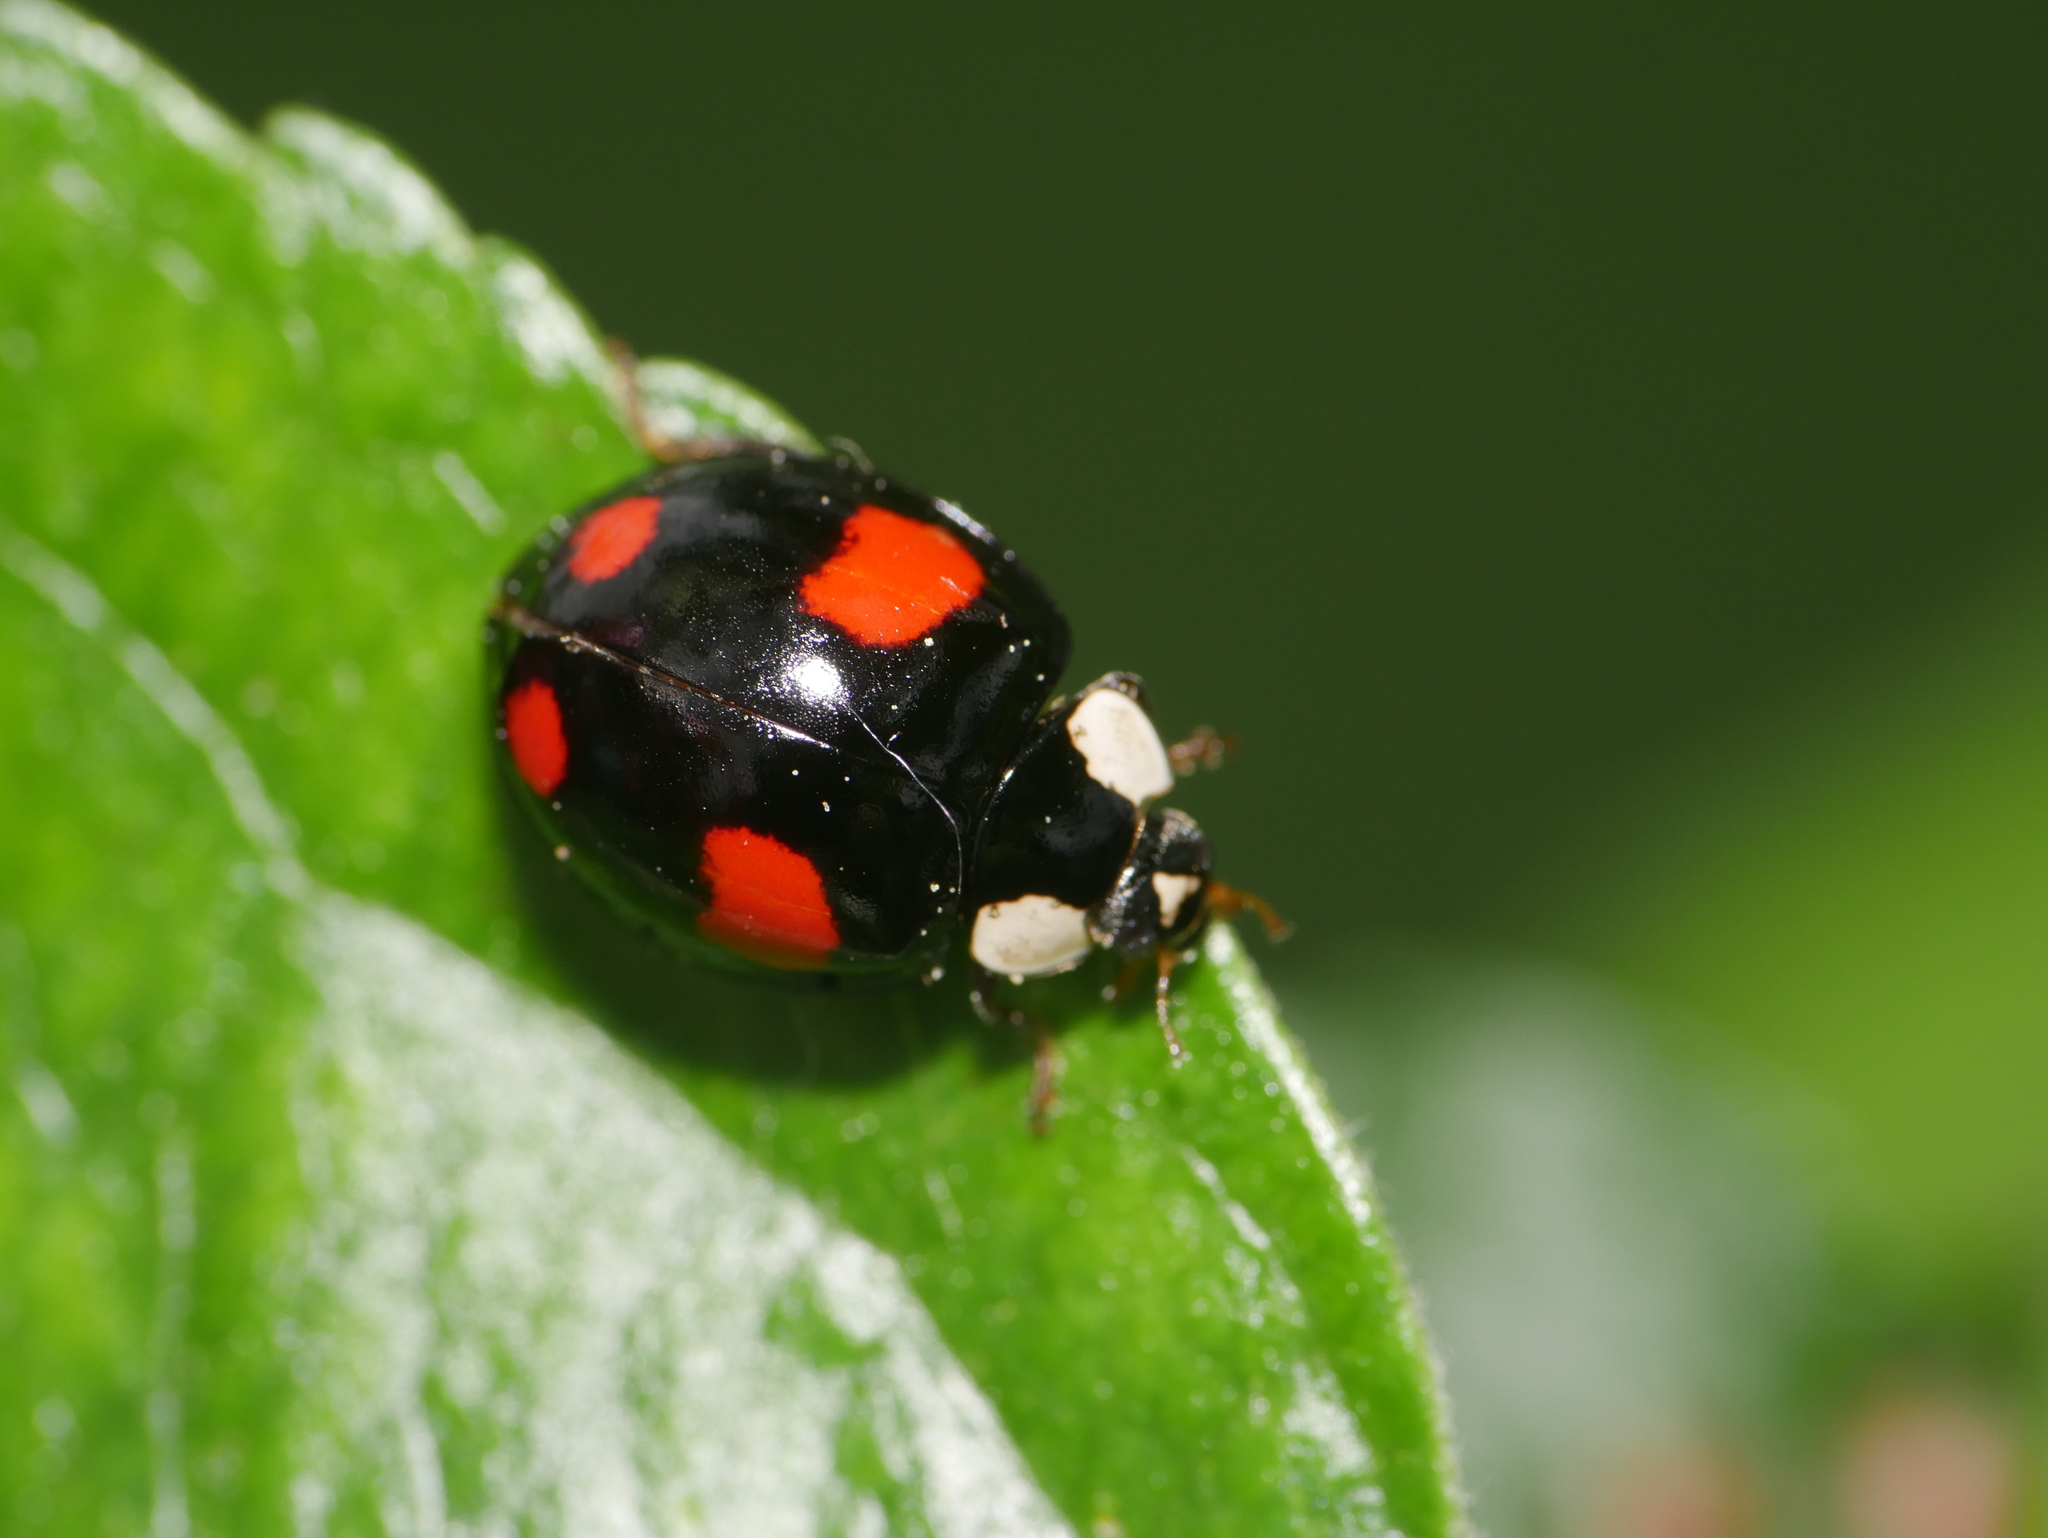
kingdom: Animalia
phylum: Arthropoda
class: Insecta
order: Coleoptera
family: Coccinellidae
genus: Harmonia
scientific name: Harmonia axyridis
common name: Harlequin ladybird
